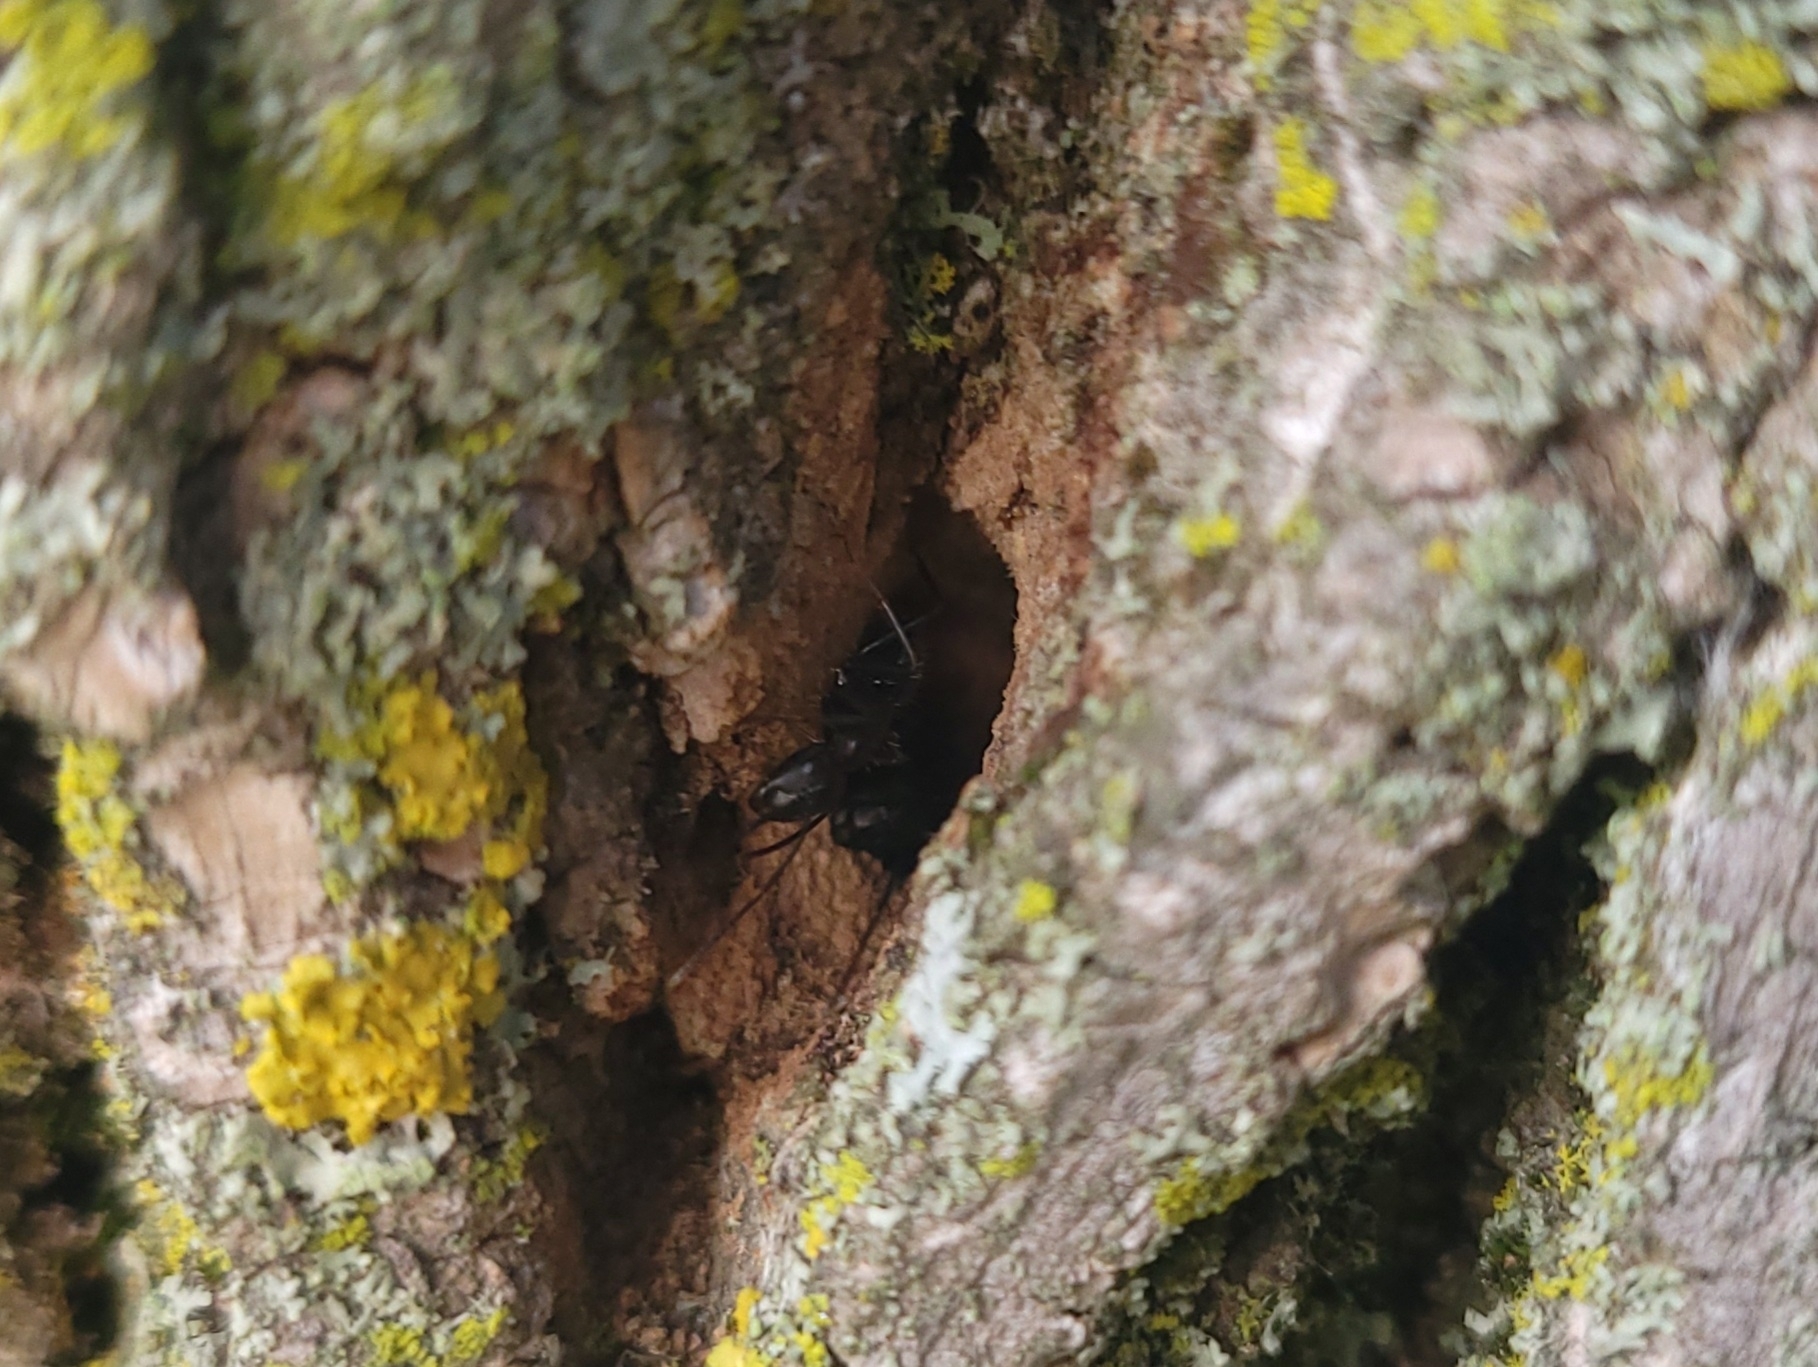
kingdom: Animalia
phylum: Arthropoda
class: Insecta
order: Hymenoptera
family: Formicidae
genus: Camponotus
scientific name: Camponotus pennsylvanicus
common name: Black carpenter ant
